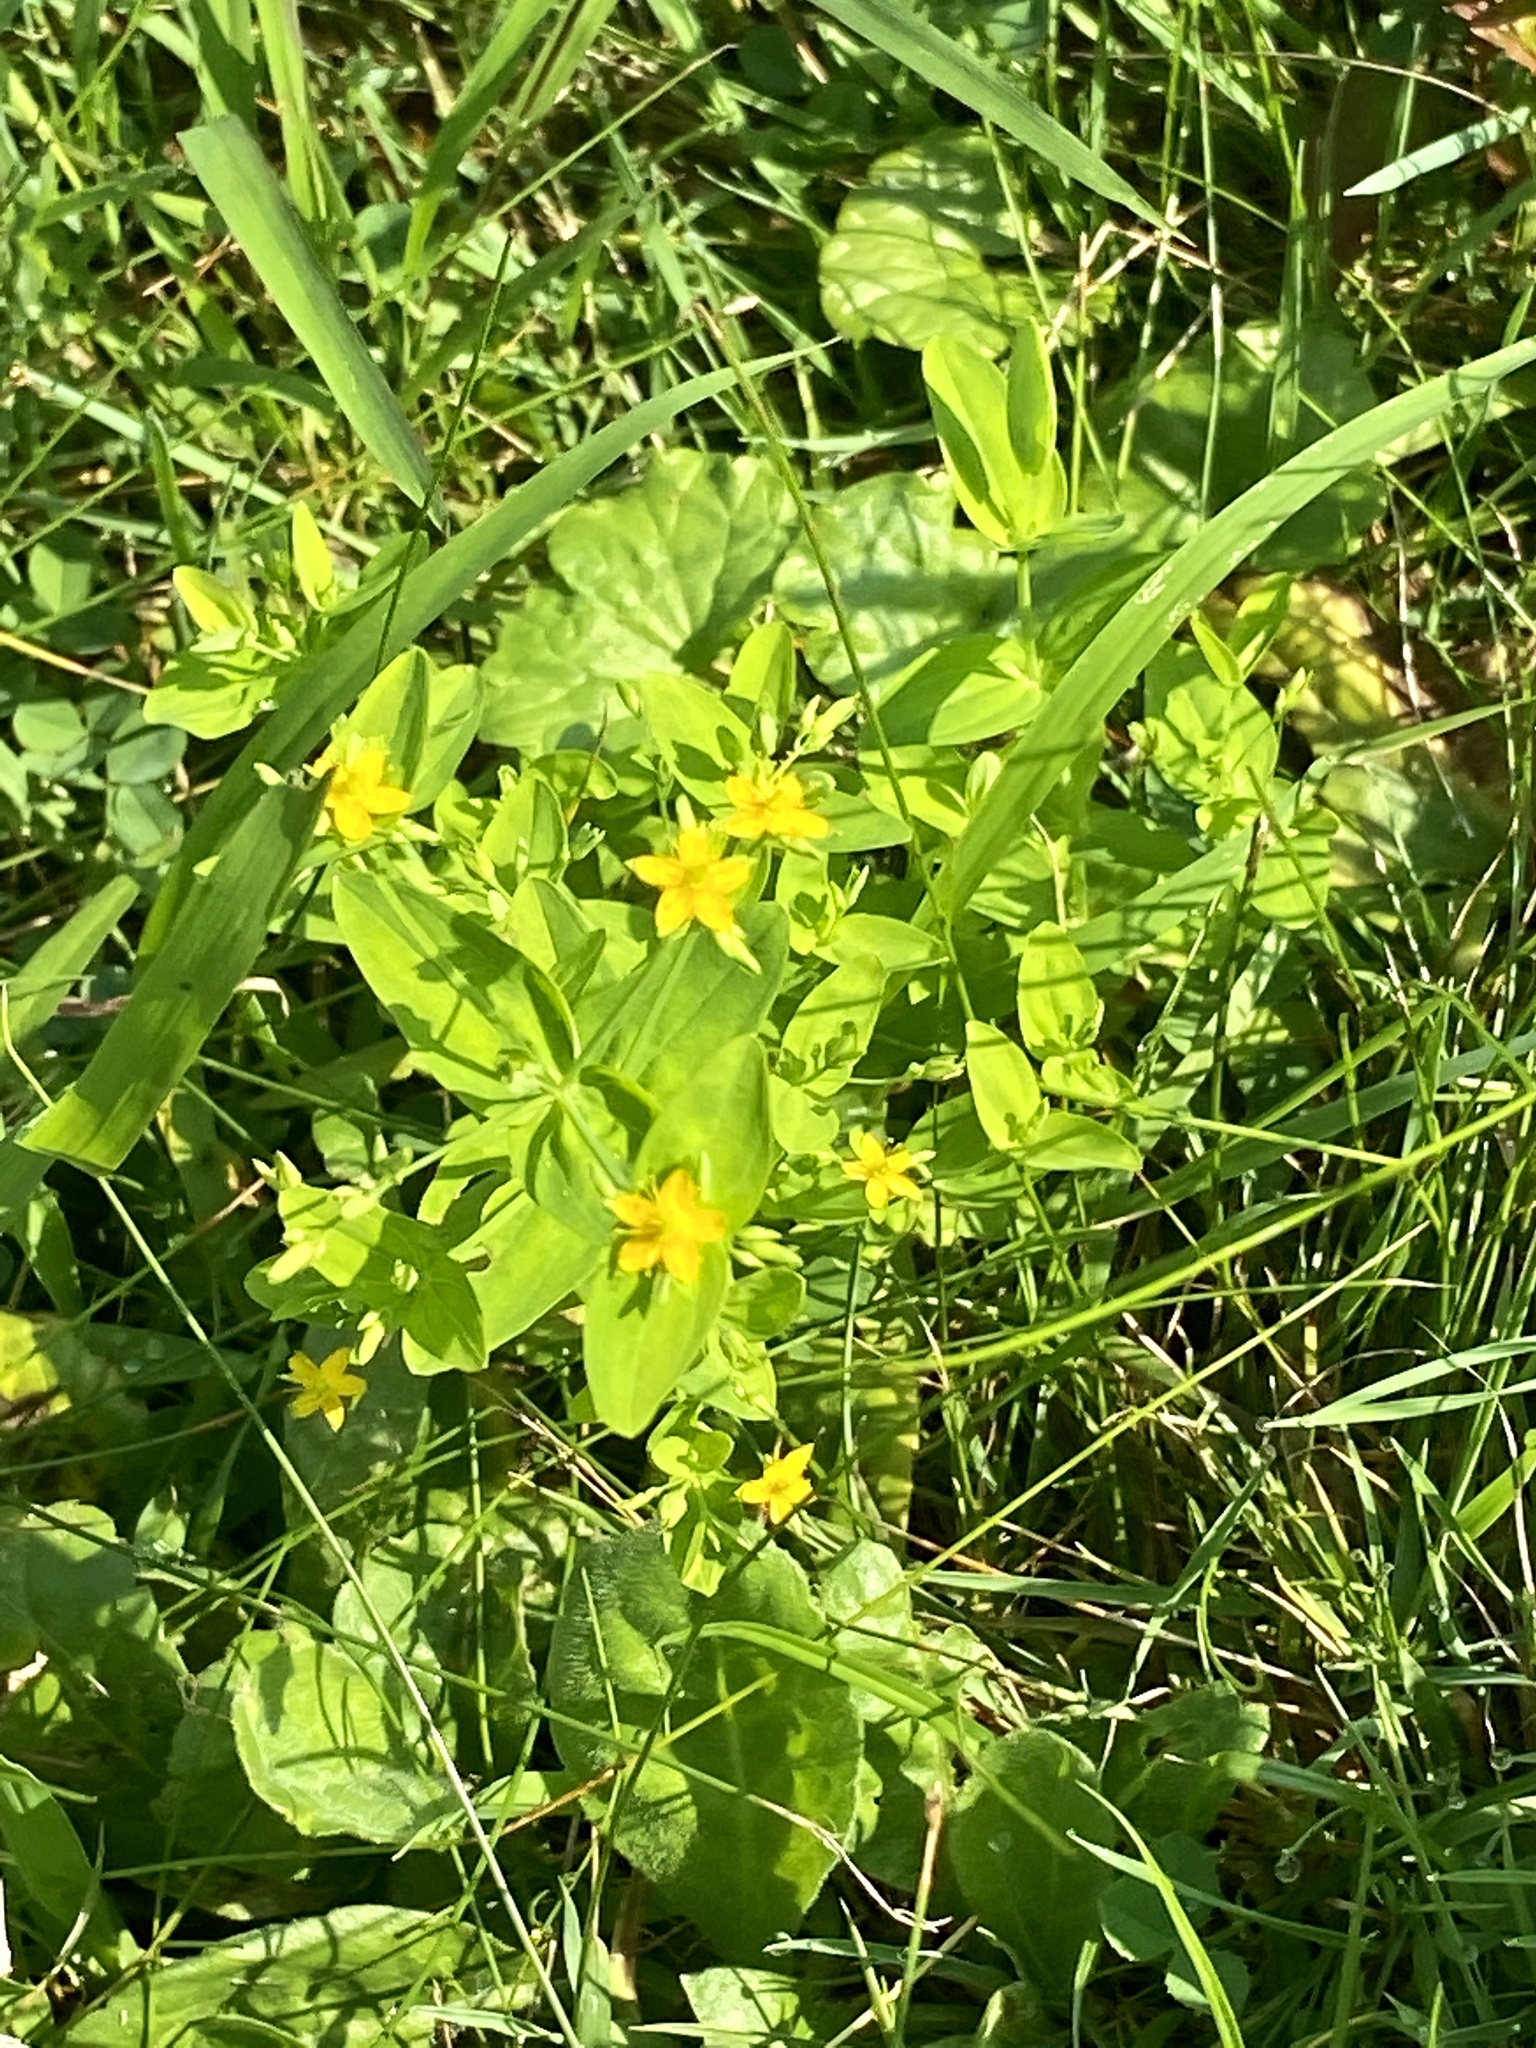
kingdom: Plantae
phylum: Tracheophyta
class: Magnoliopsida
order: Malpighiales
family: Hypericaceae
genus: Hypericum
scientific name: Hypericum mutilum
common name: Dwarf st. john's-wort
